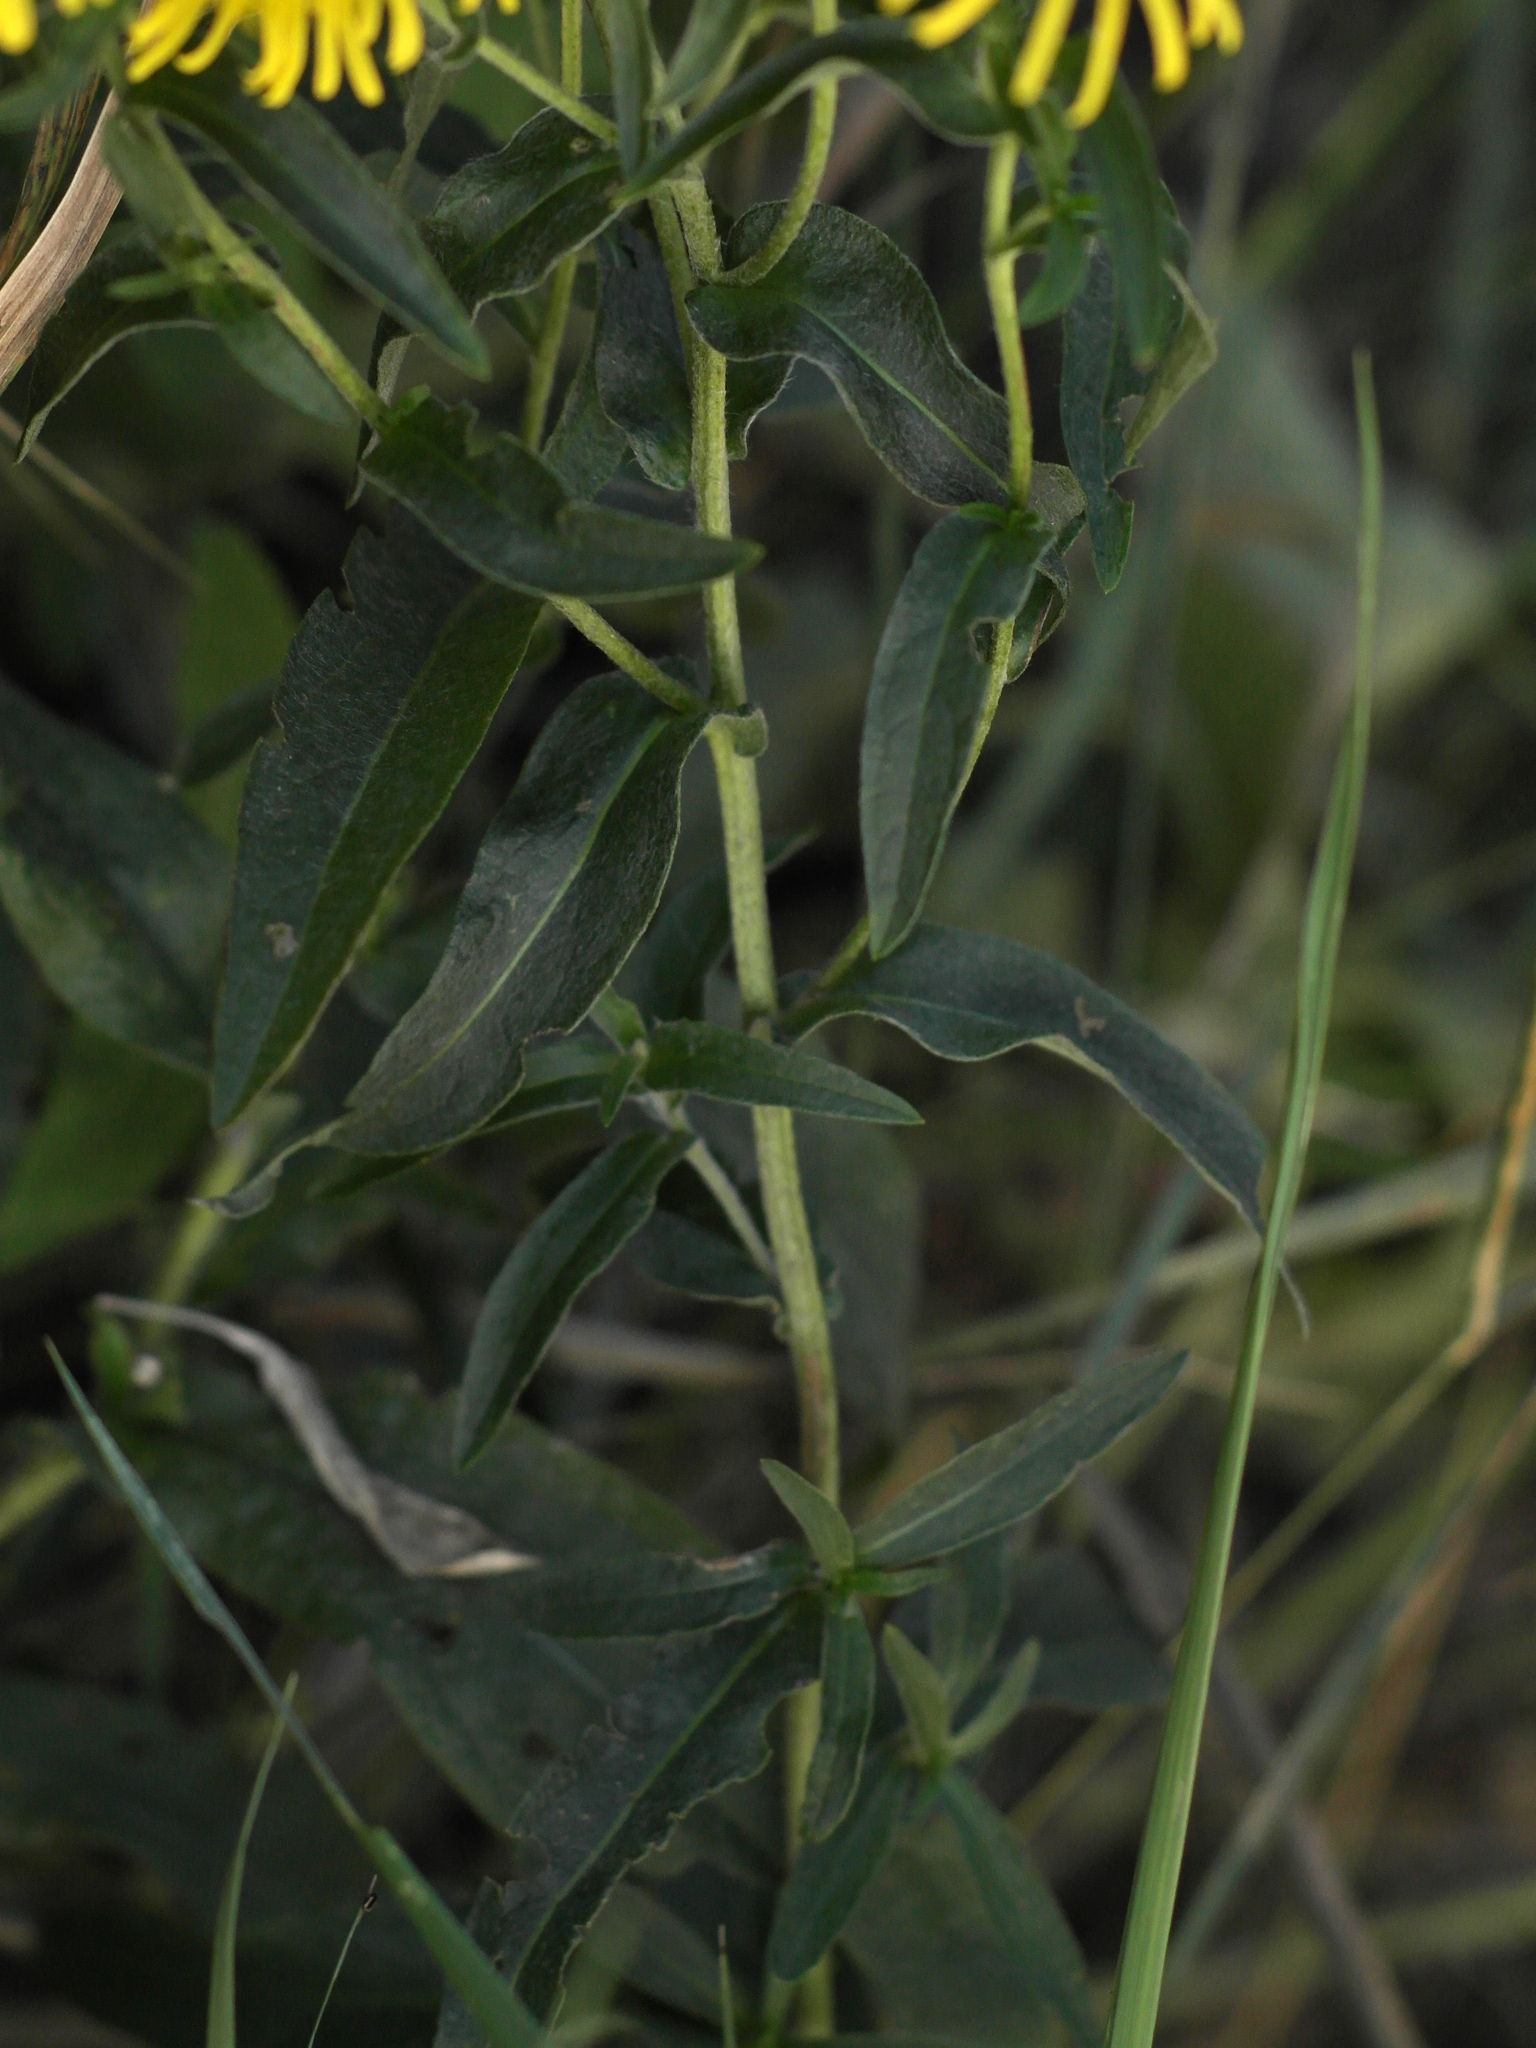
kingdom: Plantae
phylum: Tracheophyta
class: Magnoliopsida
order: Asterales
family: Asteraceae
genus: Pentanema
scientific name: Pentanema britannicum
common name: British elecampane
